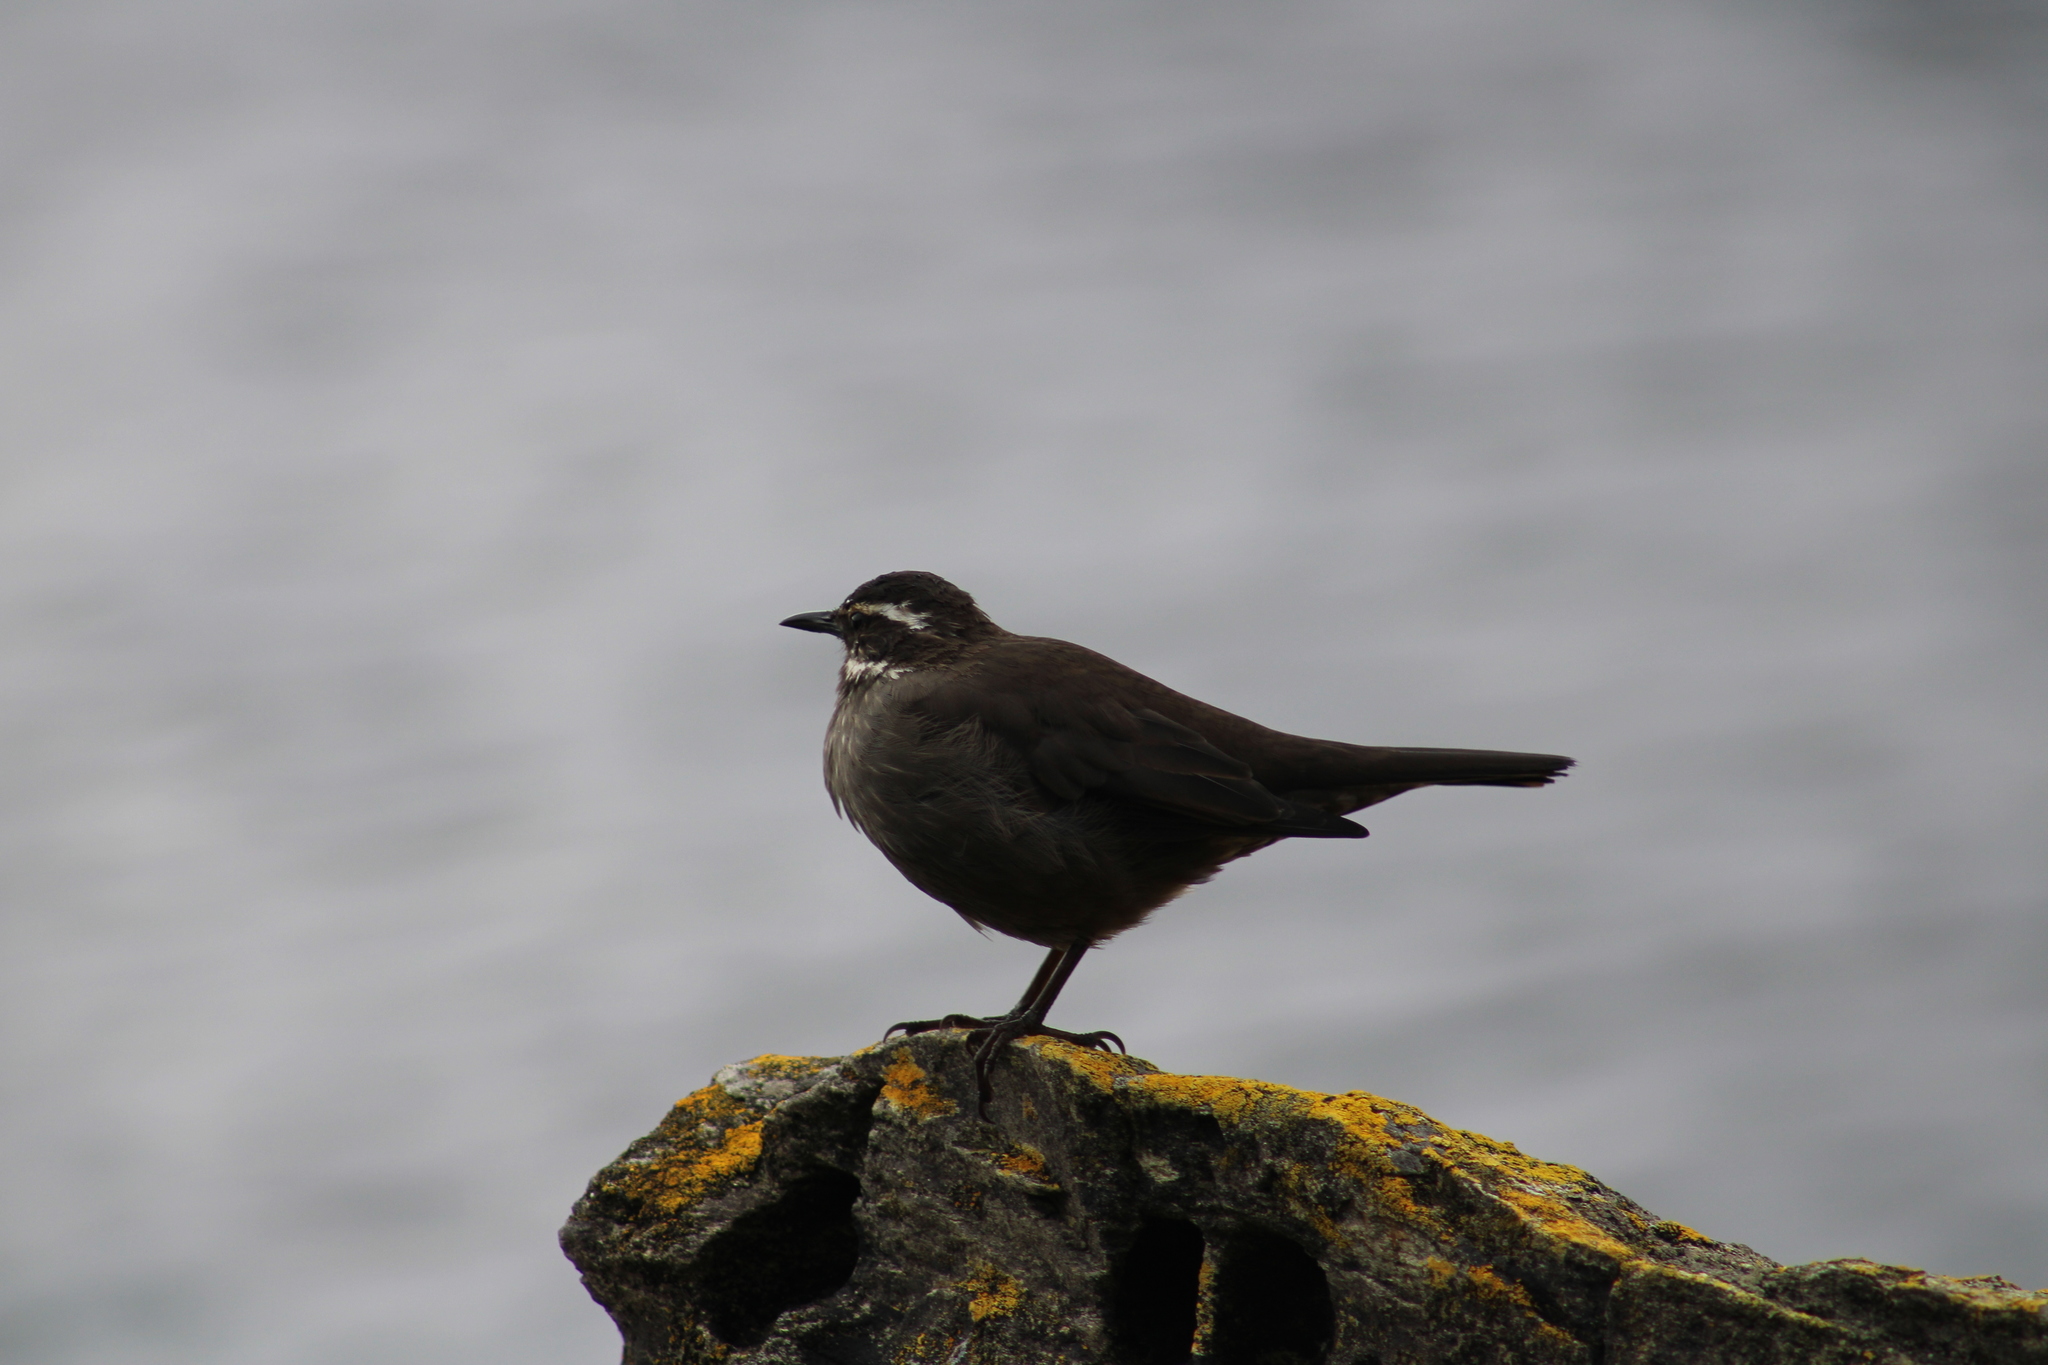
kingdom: Animalia
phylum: Chordata
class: Aves
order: Passeriformes
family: Furnariidae
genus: Cinclodes
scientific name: Cinclodes patagonicus
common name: Dark-bellied cinclodes
